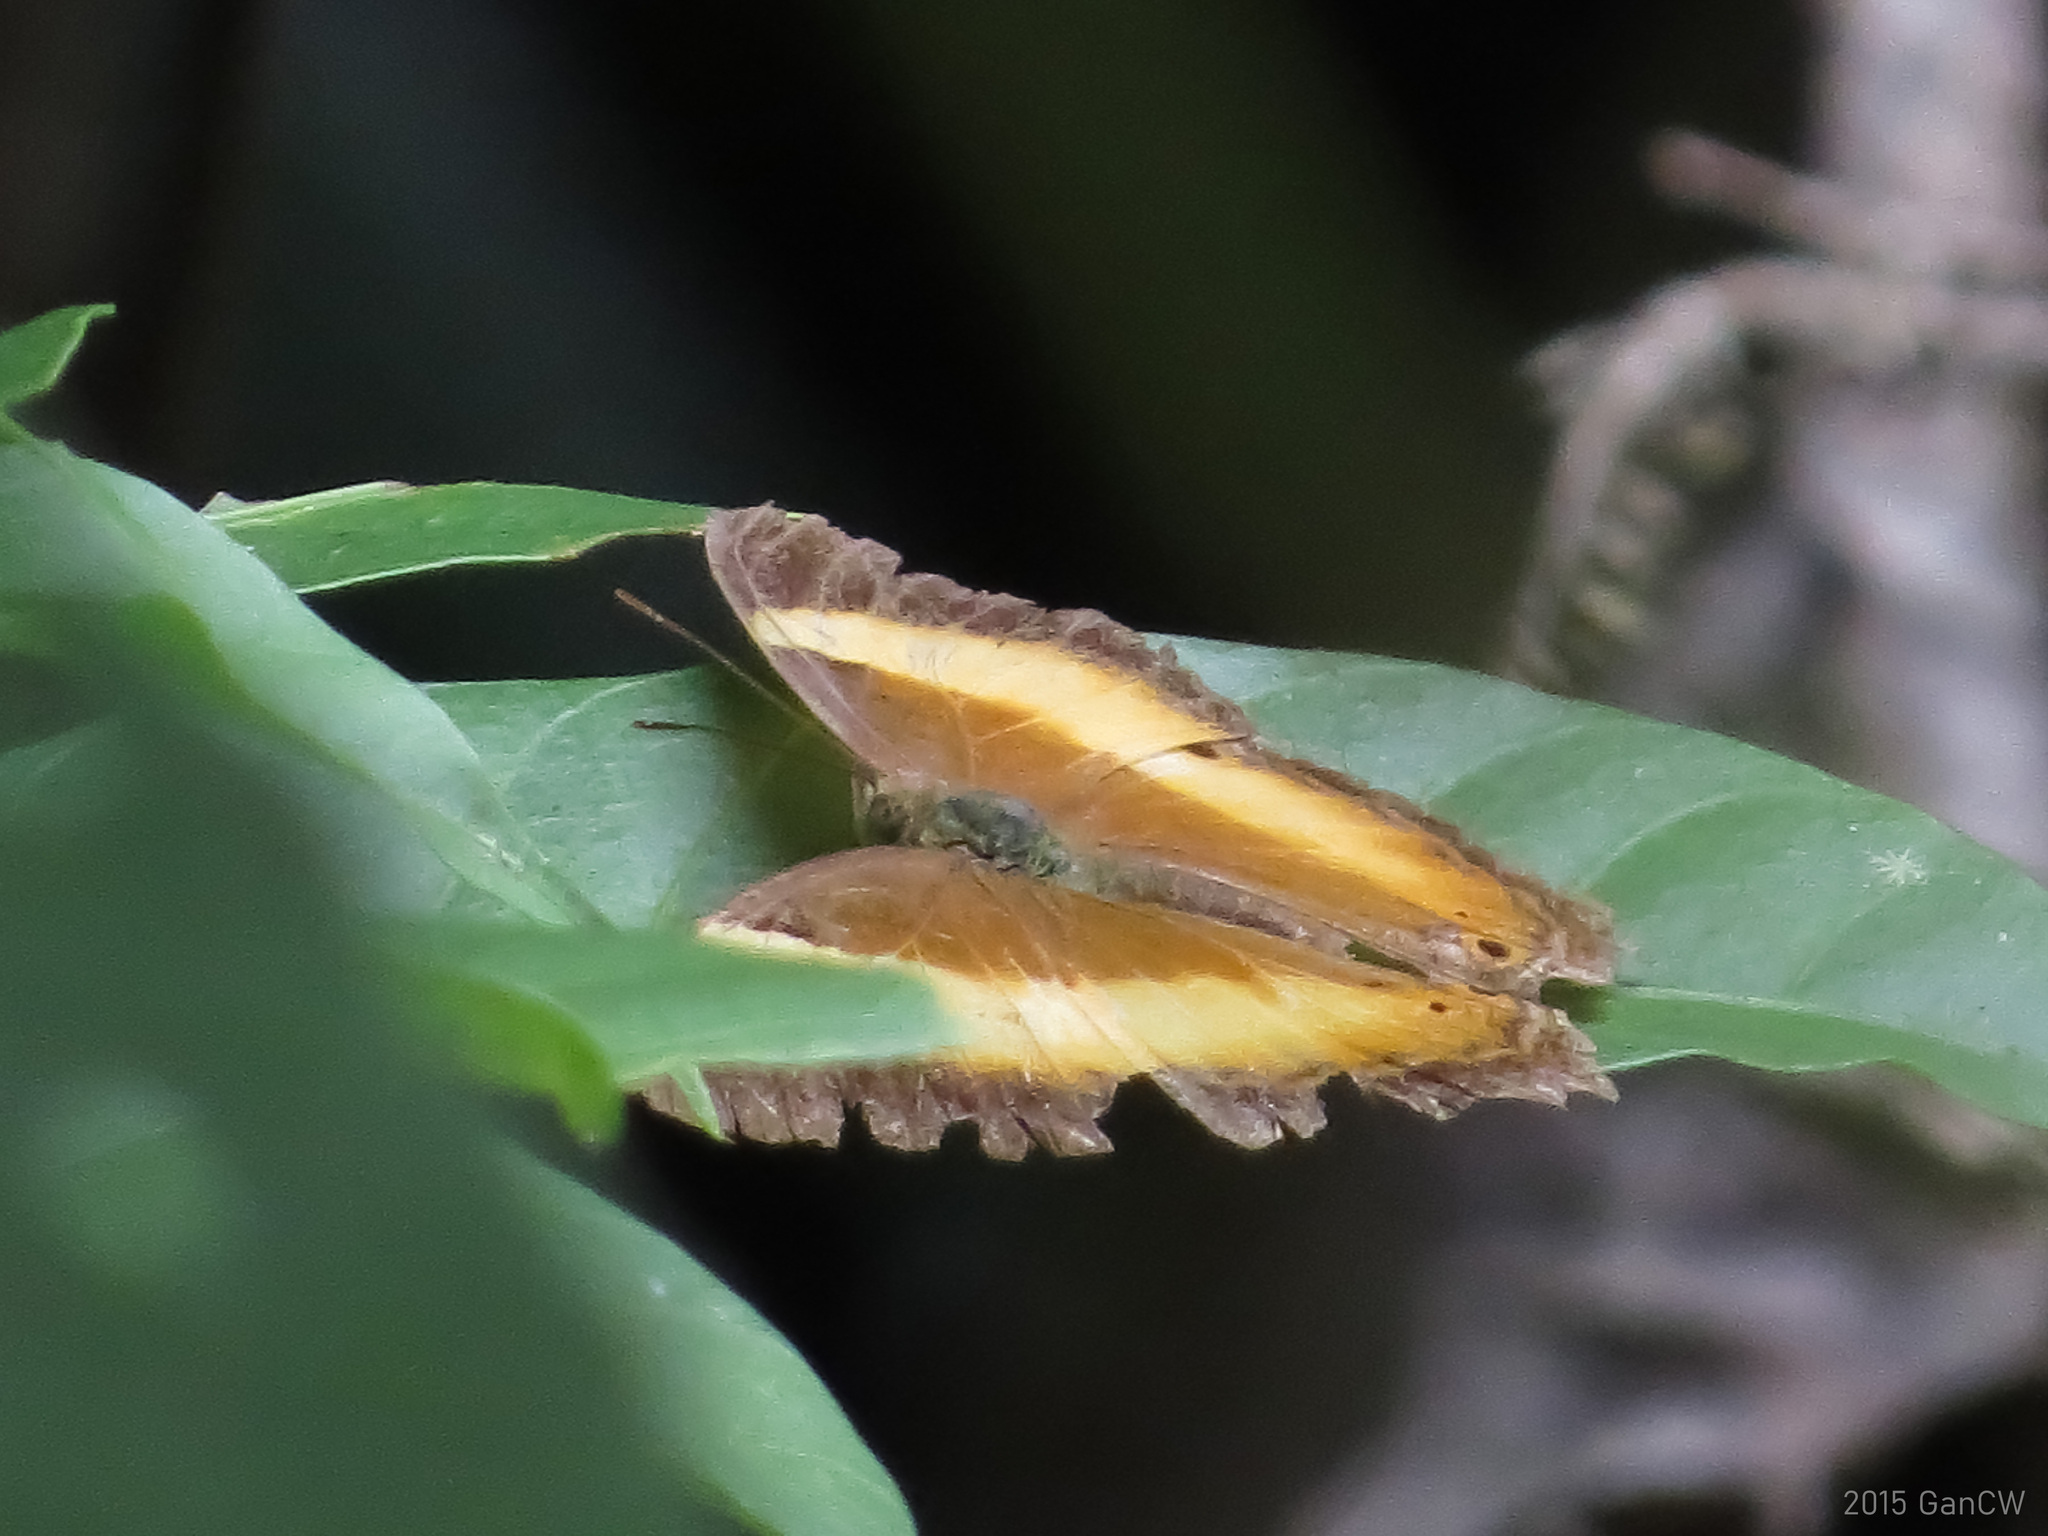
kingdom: Animalia
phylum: Arthropoda
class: Insecta
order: Lepidoptera
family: Nymphalidae
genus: Cirrochroa
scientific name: Cirrochroa satellita
